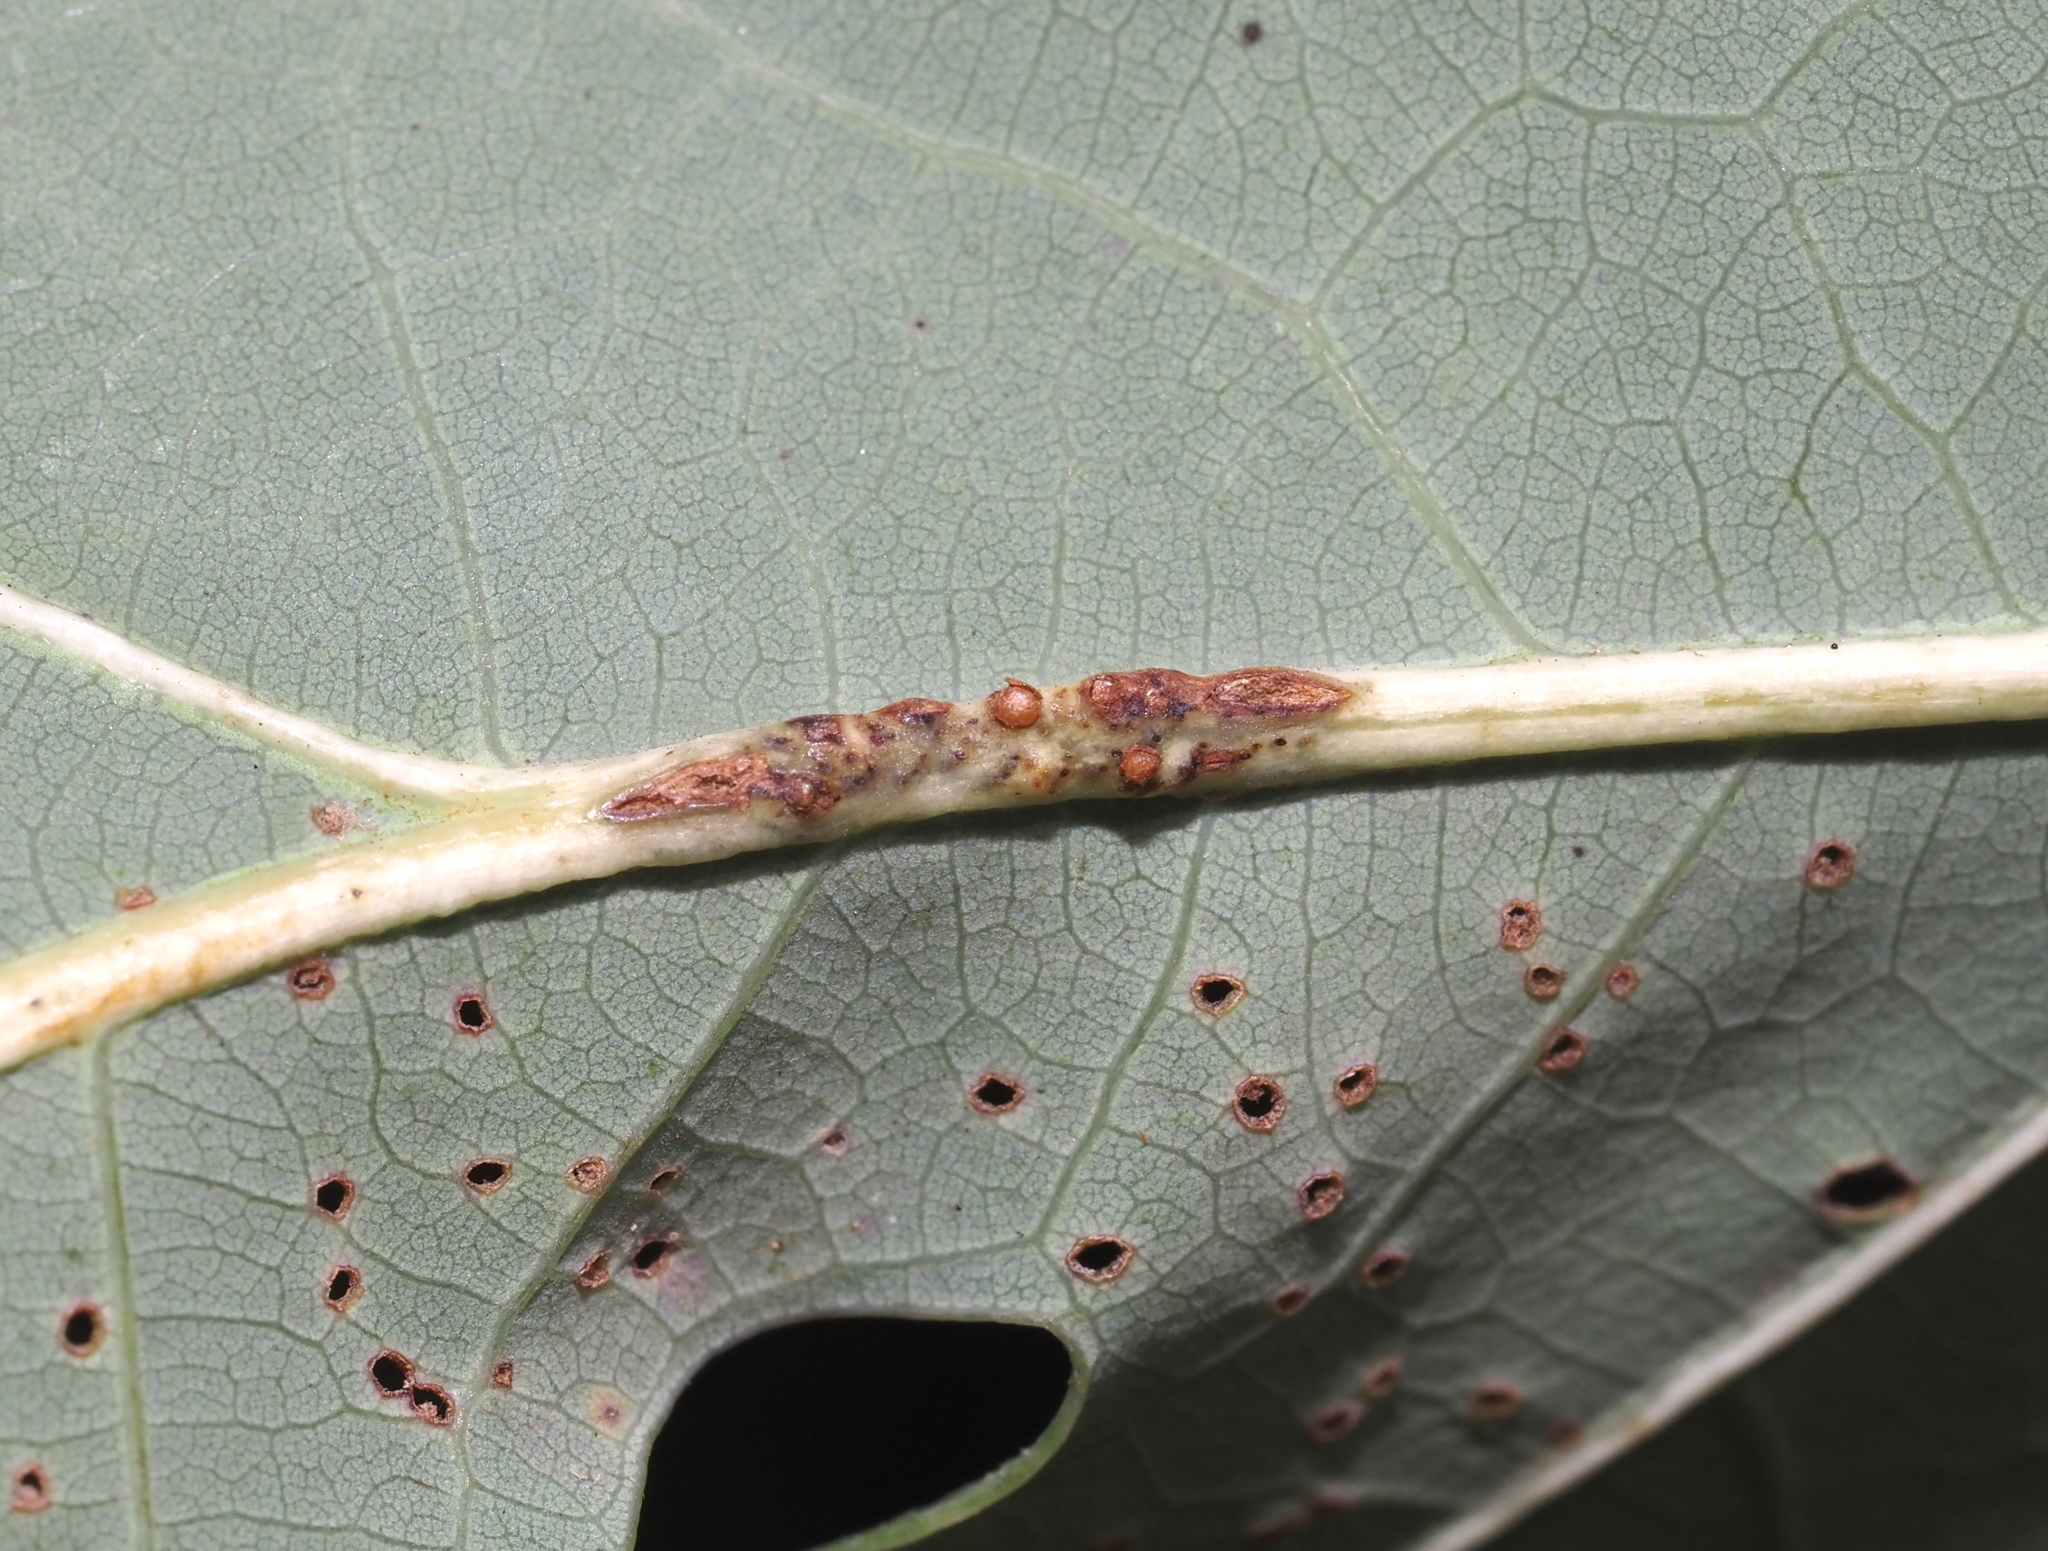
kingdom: Animalia
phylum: Arthropoda
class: Insecta
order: Hymenoptera
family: Cynipidae
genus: Andricus
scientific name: Andricus
